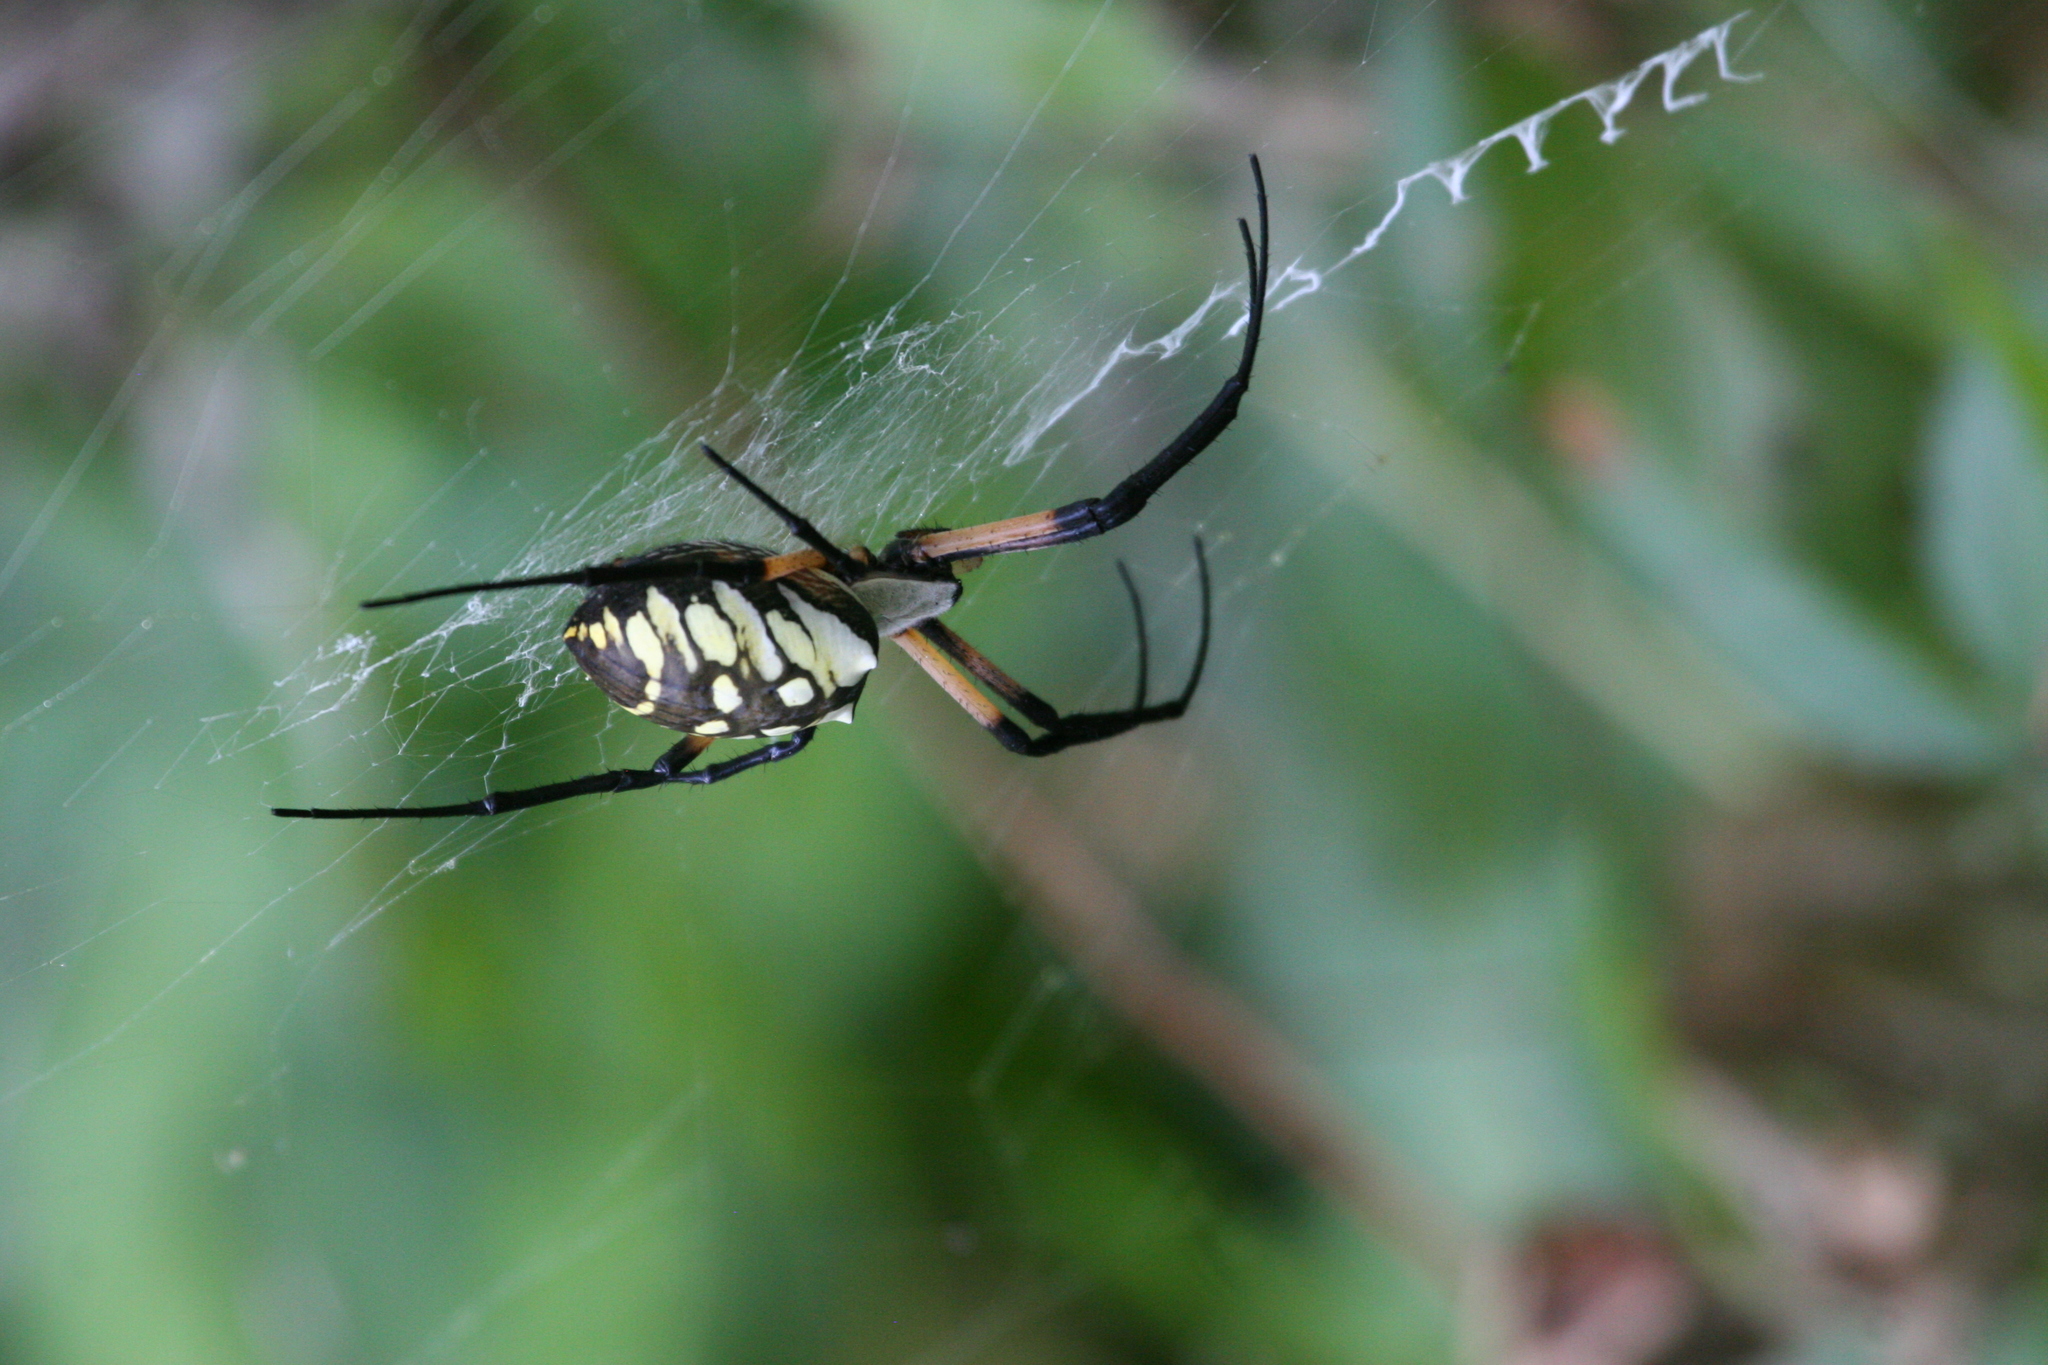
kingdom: Animalia
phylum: Arthropoda
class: Arachnida
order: Araneae
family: Araneidae
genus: Argiope
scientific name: Argiope aurantia
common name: Orb weavers
